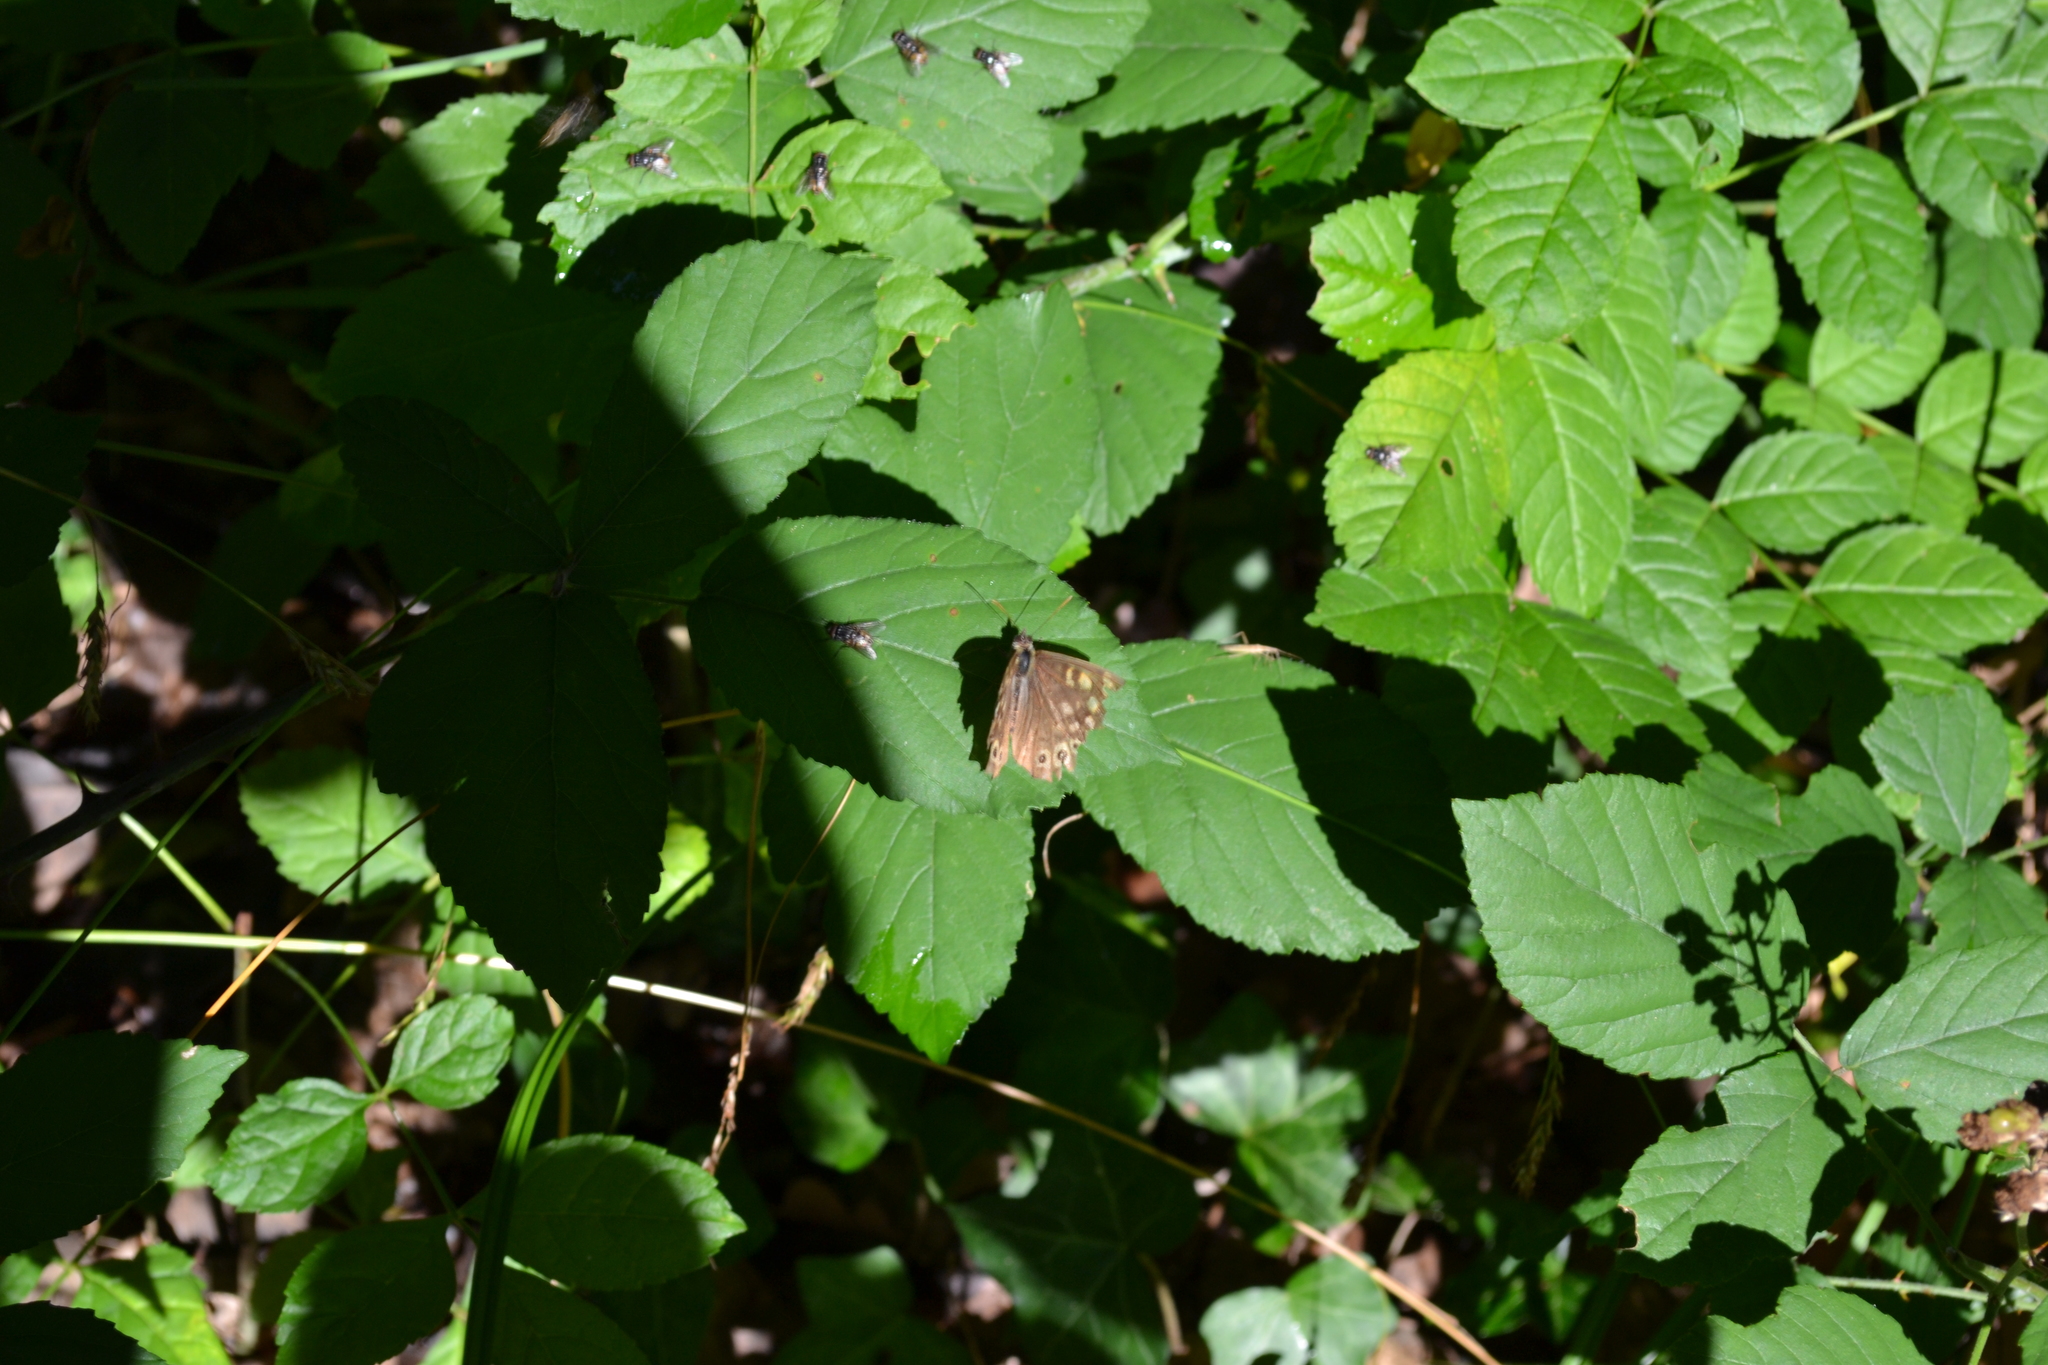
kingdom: Animalia
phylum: Arthropoda
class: Insecta
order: Lepidoptera
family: Nymphalidae
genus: Pararge
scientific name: Pararge aegeria
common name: Speckled wood
